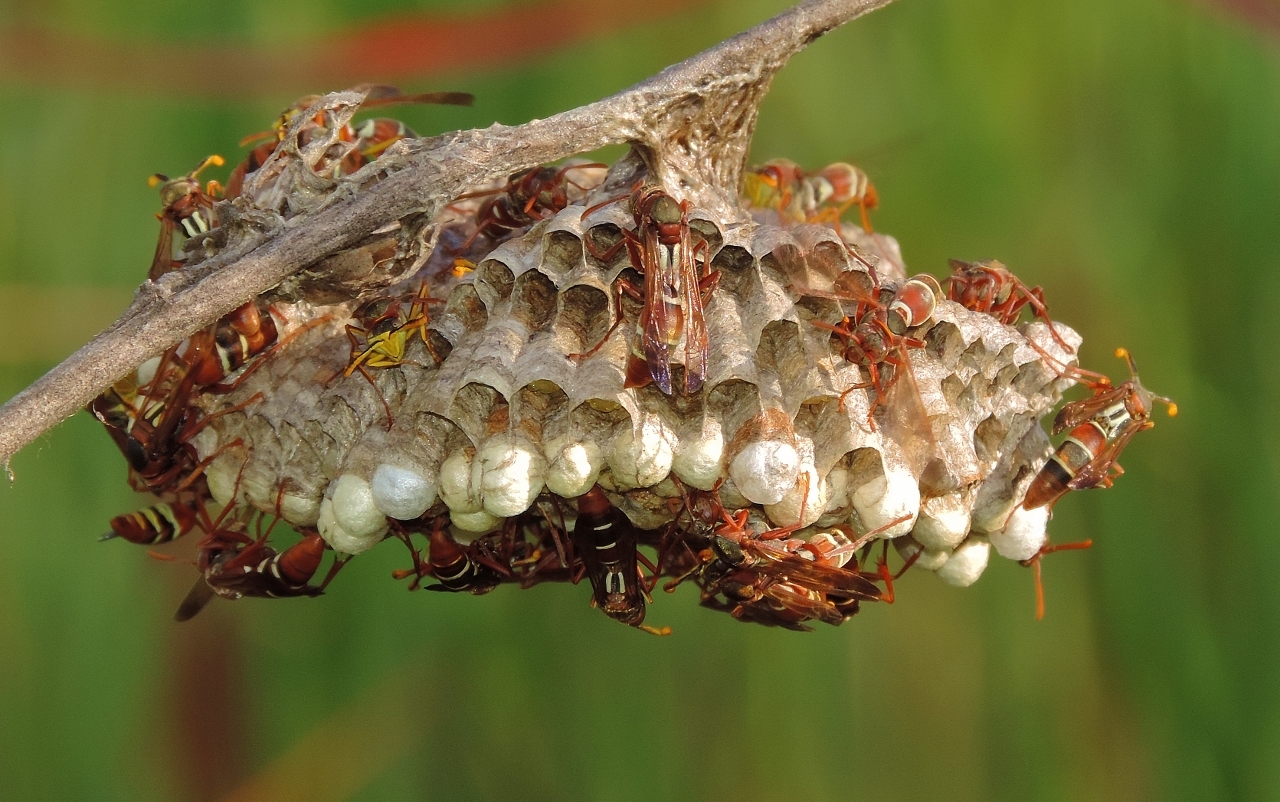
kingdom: Animalia
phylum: Arthropoda
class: Insecta
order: Hymenoptera
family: Eumenidae
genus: Polistes
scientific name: Polistes marginalis
